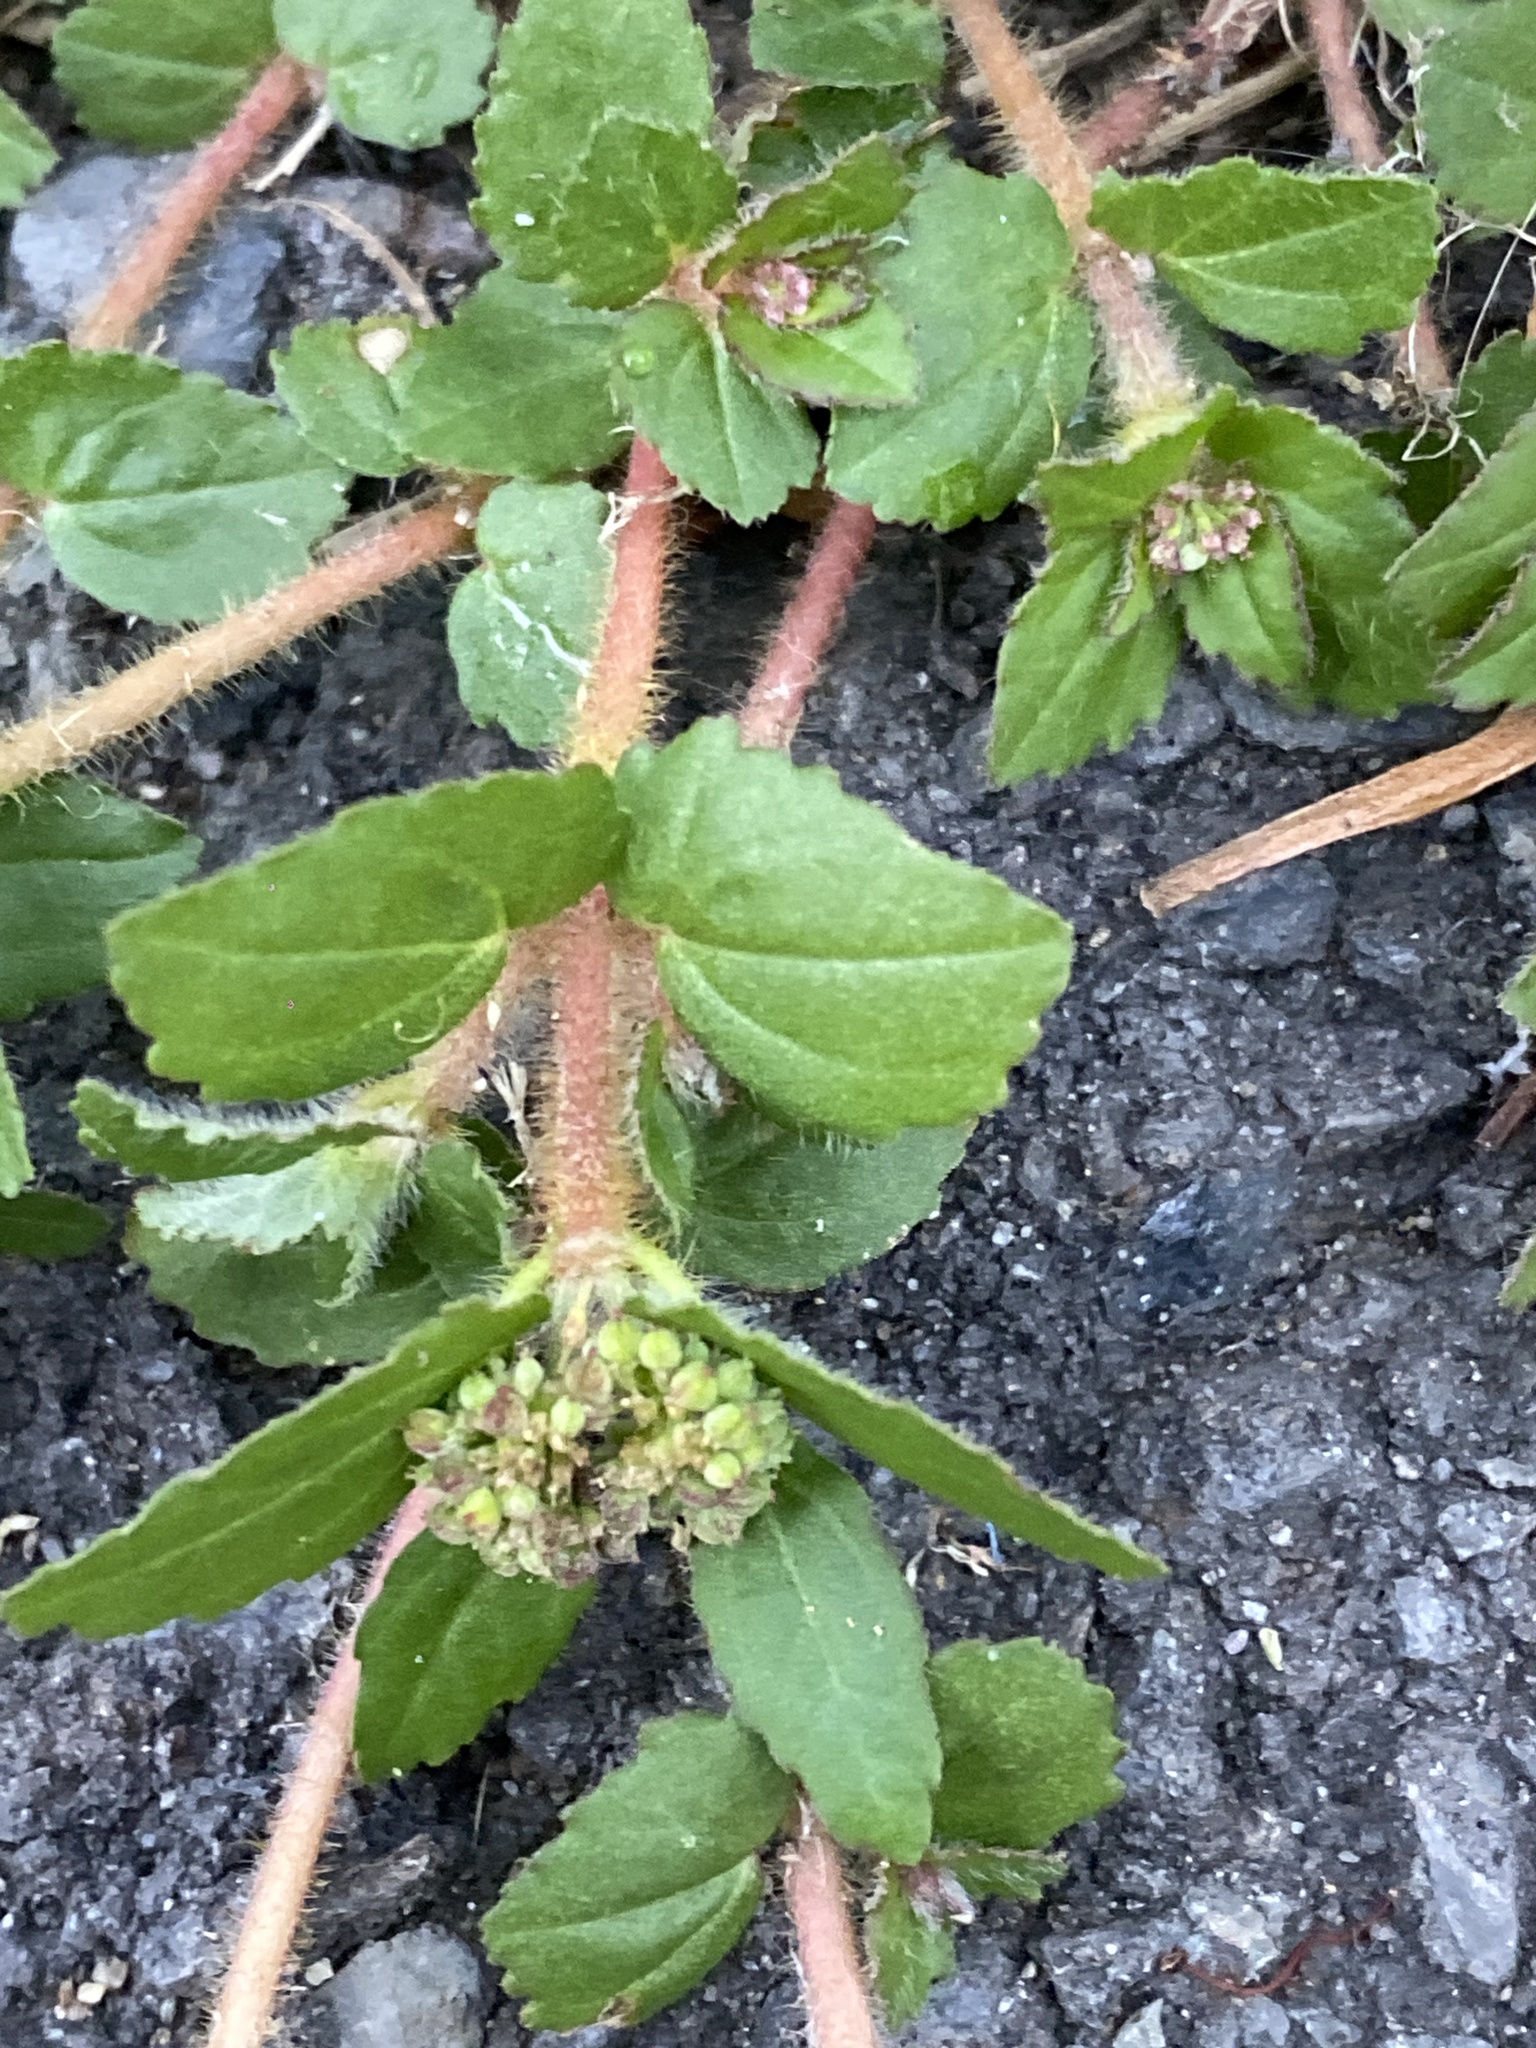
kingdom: Plantae
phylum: Tracheophyta
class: Magnoliopsida
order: Malpighiales
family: Euphorbiaceae
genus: Euphorbia
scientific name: Euphorbia ophthalmica
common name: Florida hammock sandmat
